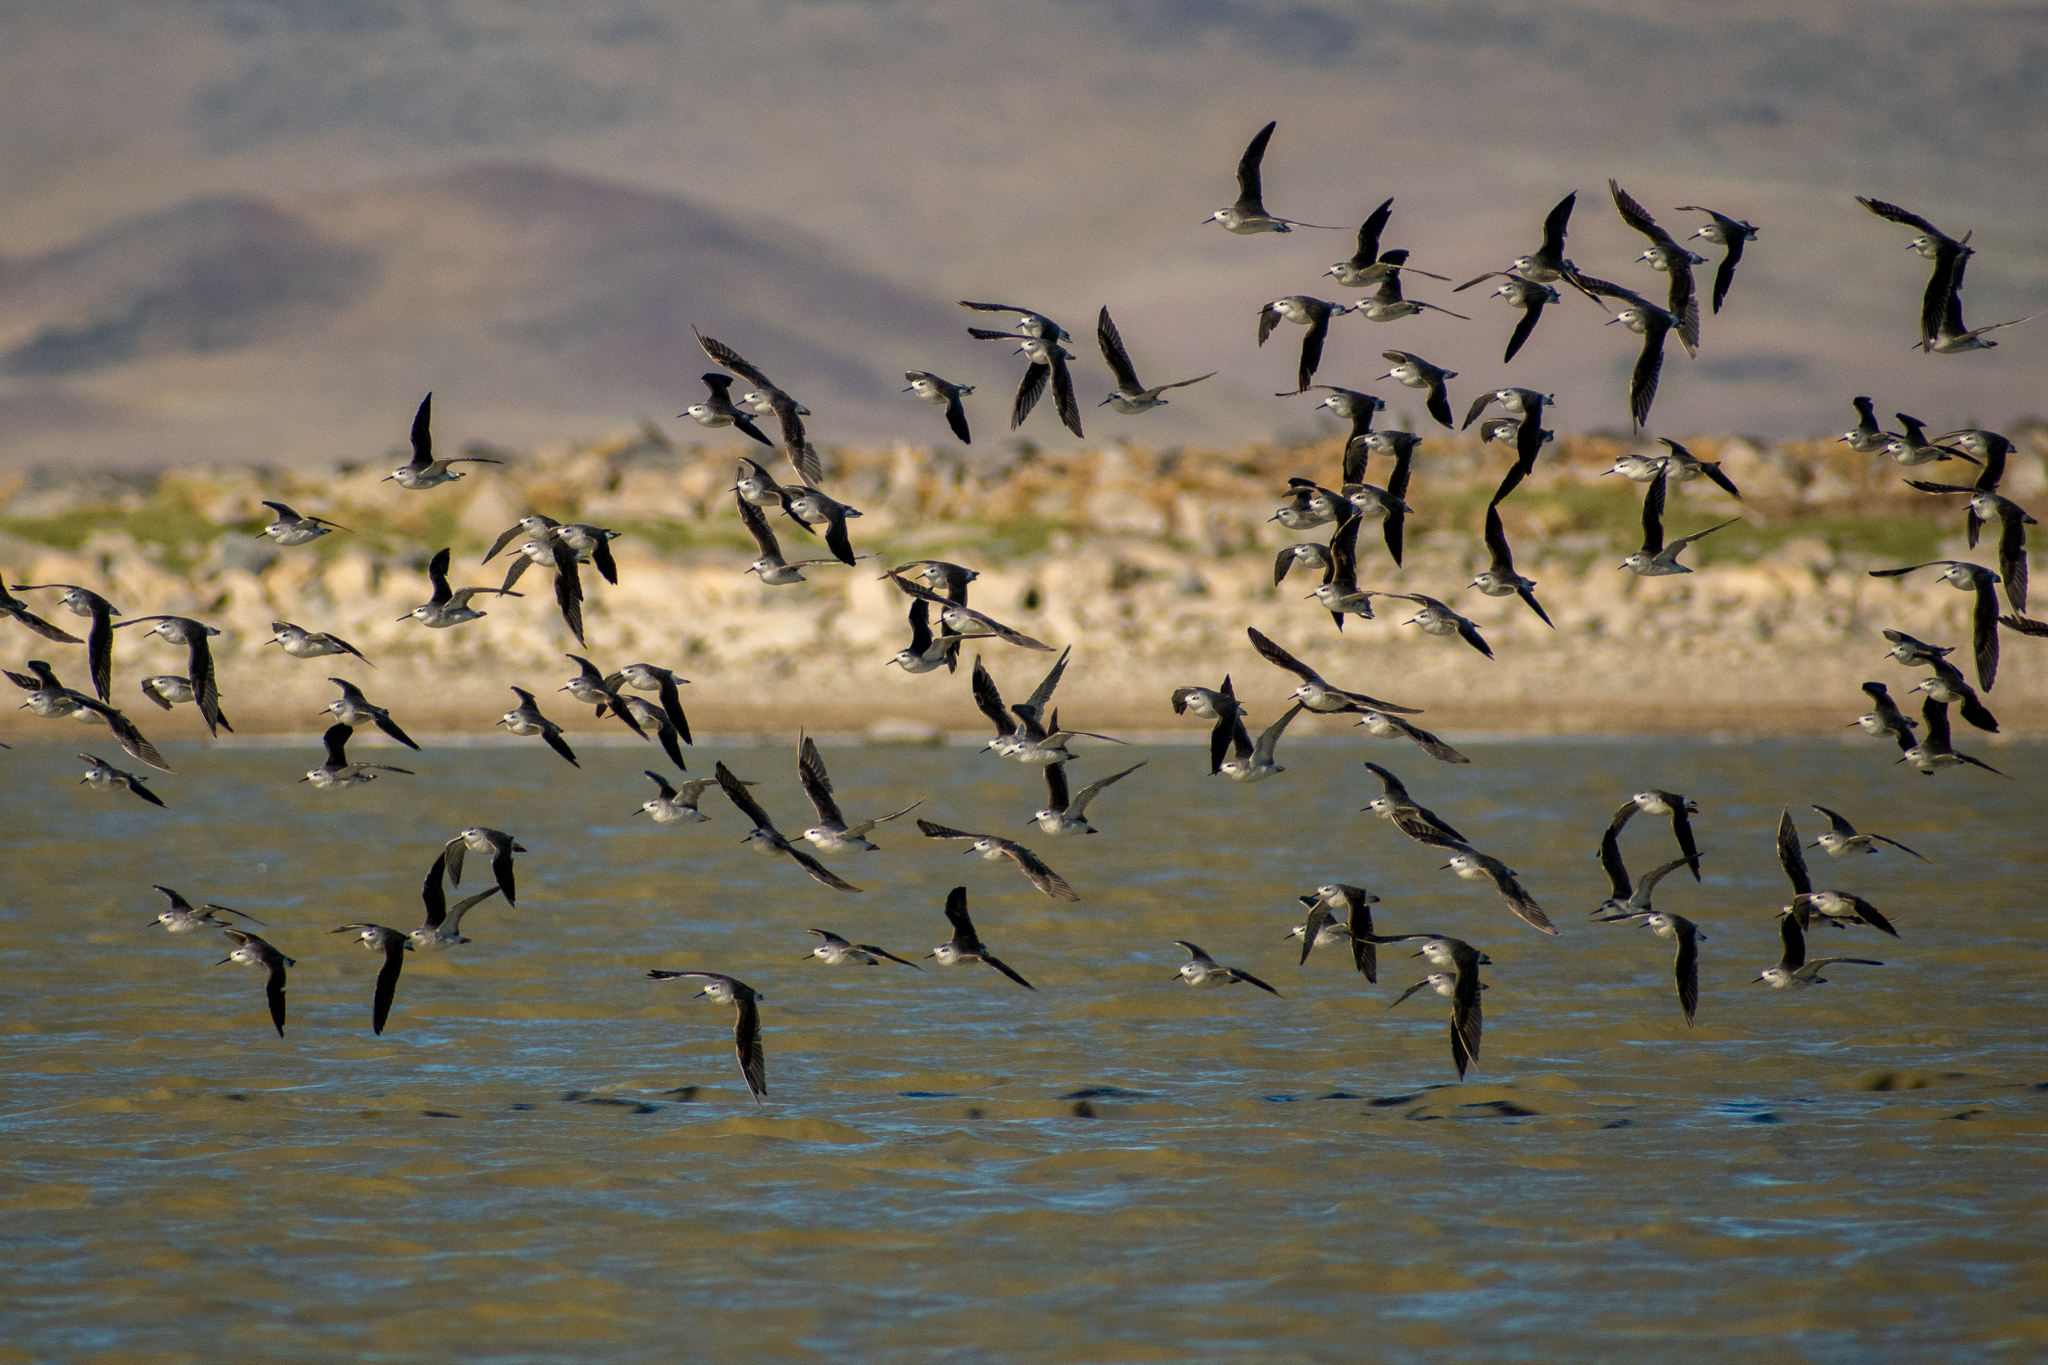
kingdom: Animalia
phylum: Chordata
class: Aves
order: Charadriiformes
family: Scolopacidae
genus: Phalaropus
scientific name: Phalaropus tricolor
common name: Wilson's phalarope
